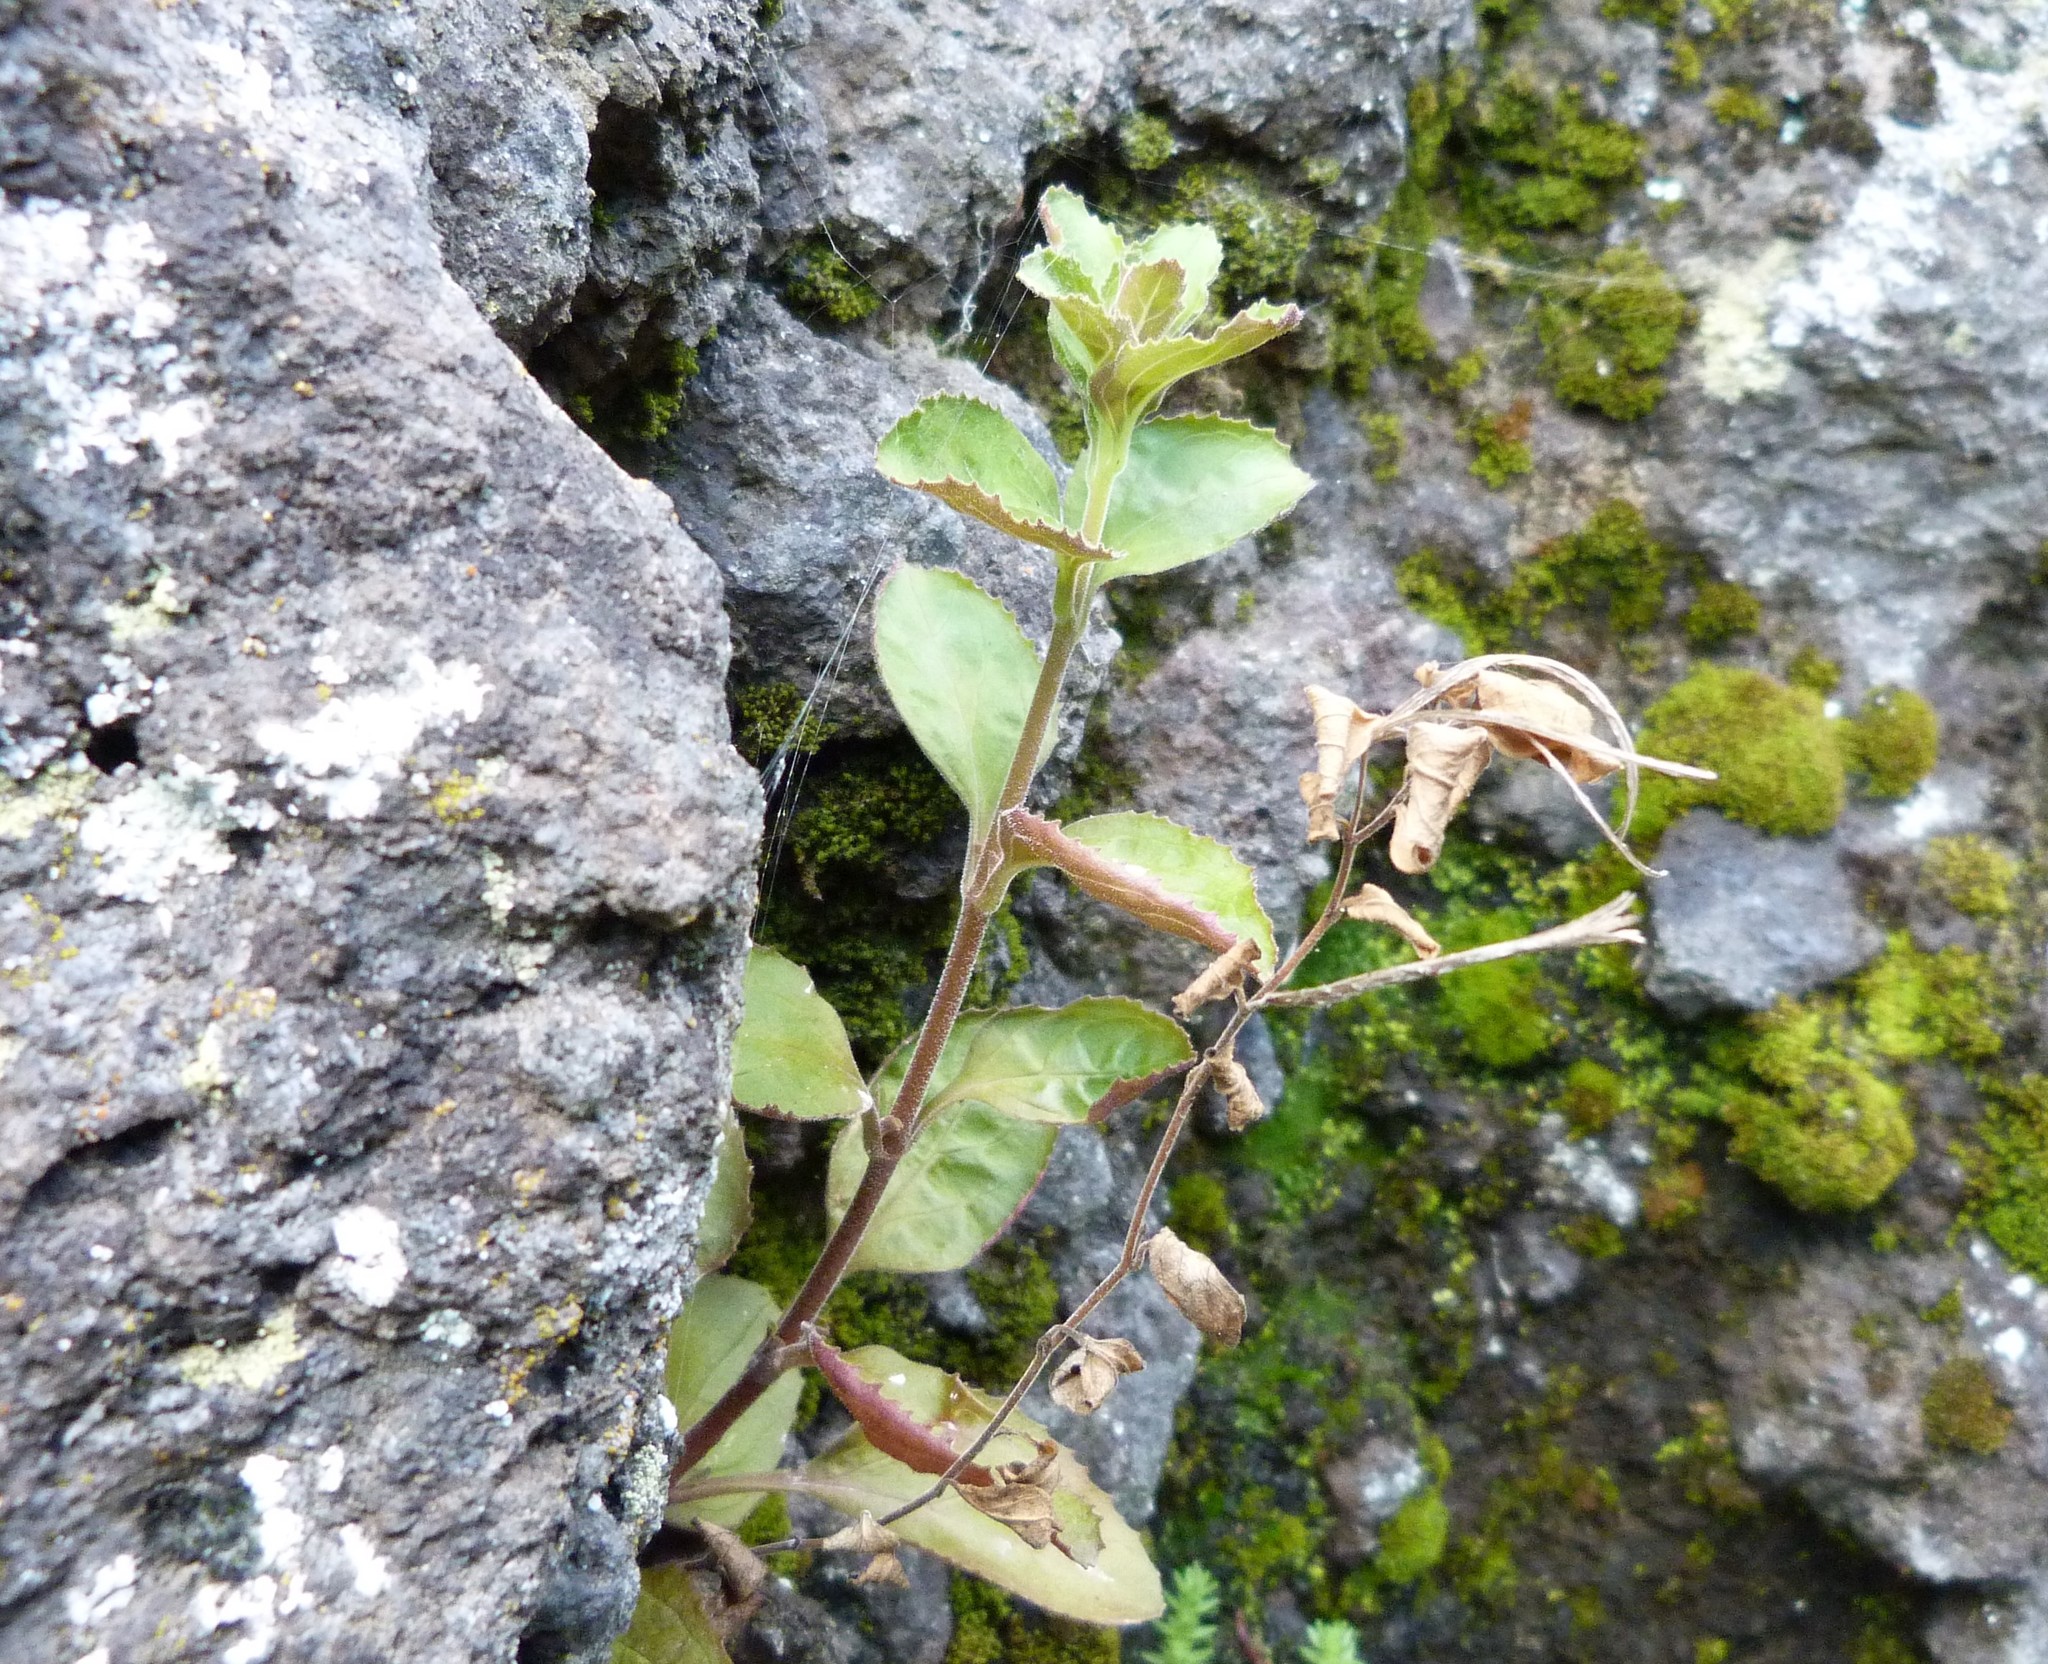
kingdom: Plantae
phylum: Tracheophyta
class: Magnoliopsida
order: Myrtales
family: Onagraceae
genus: Epilobium
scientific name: Epilobium pubens
